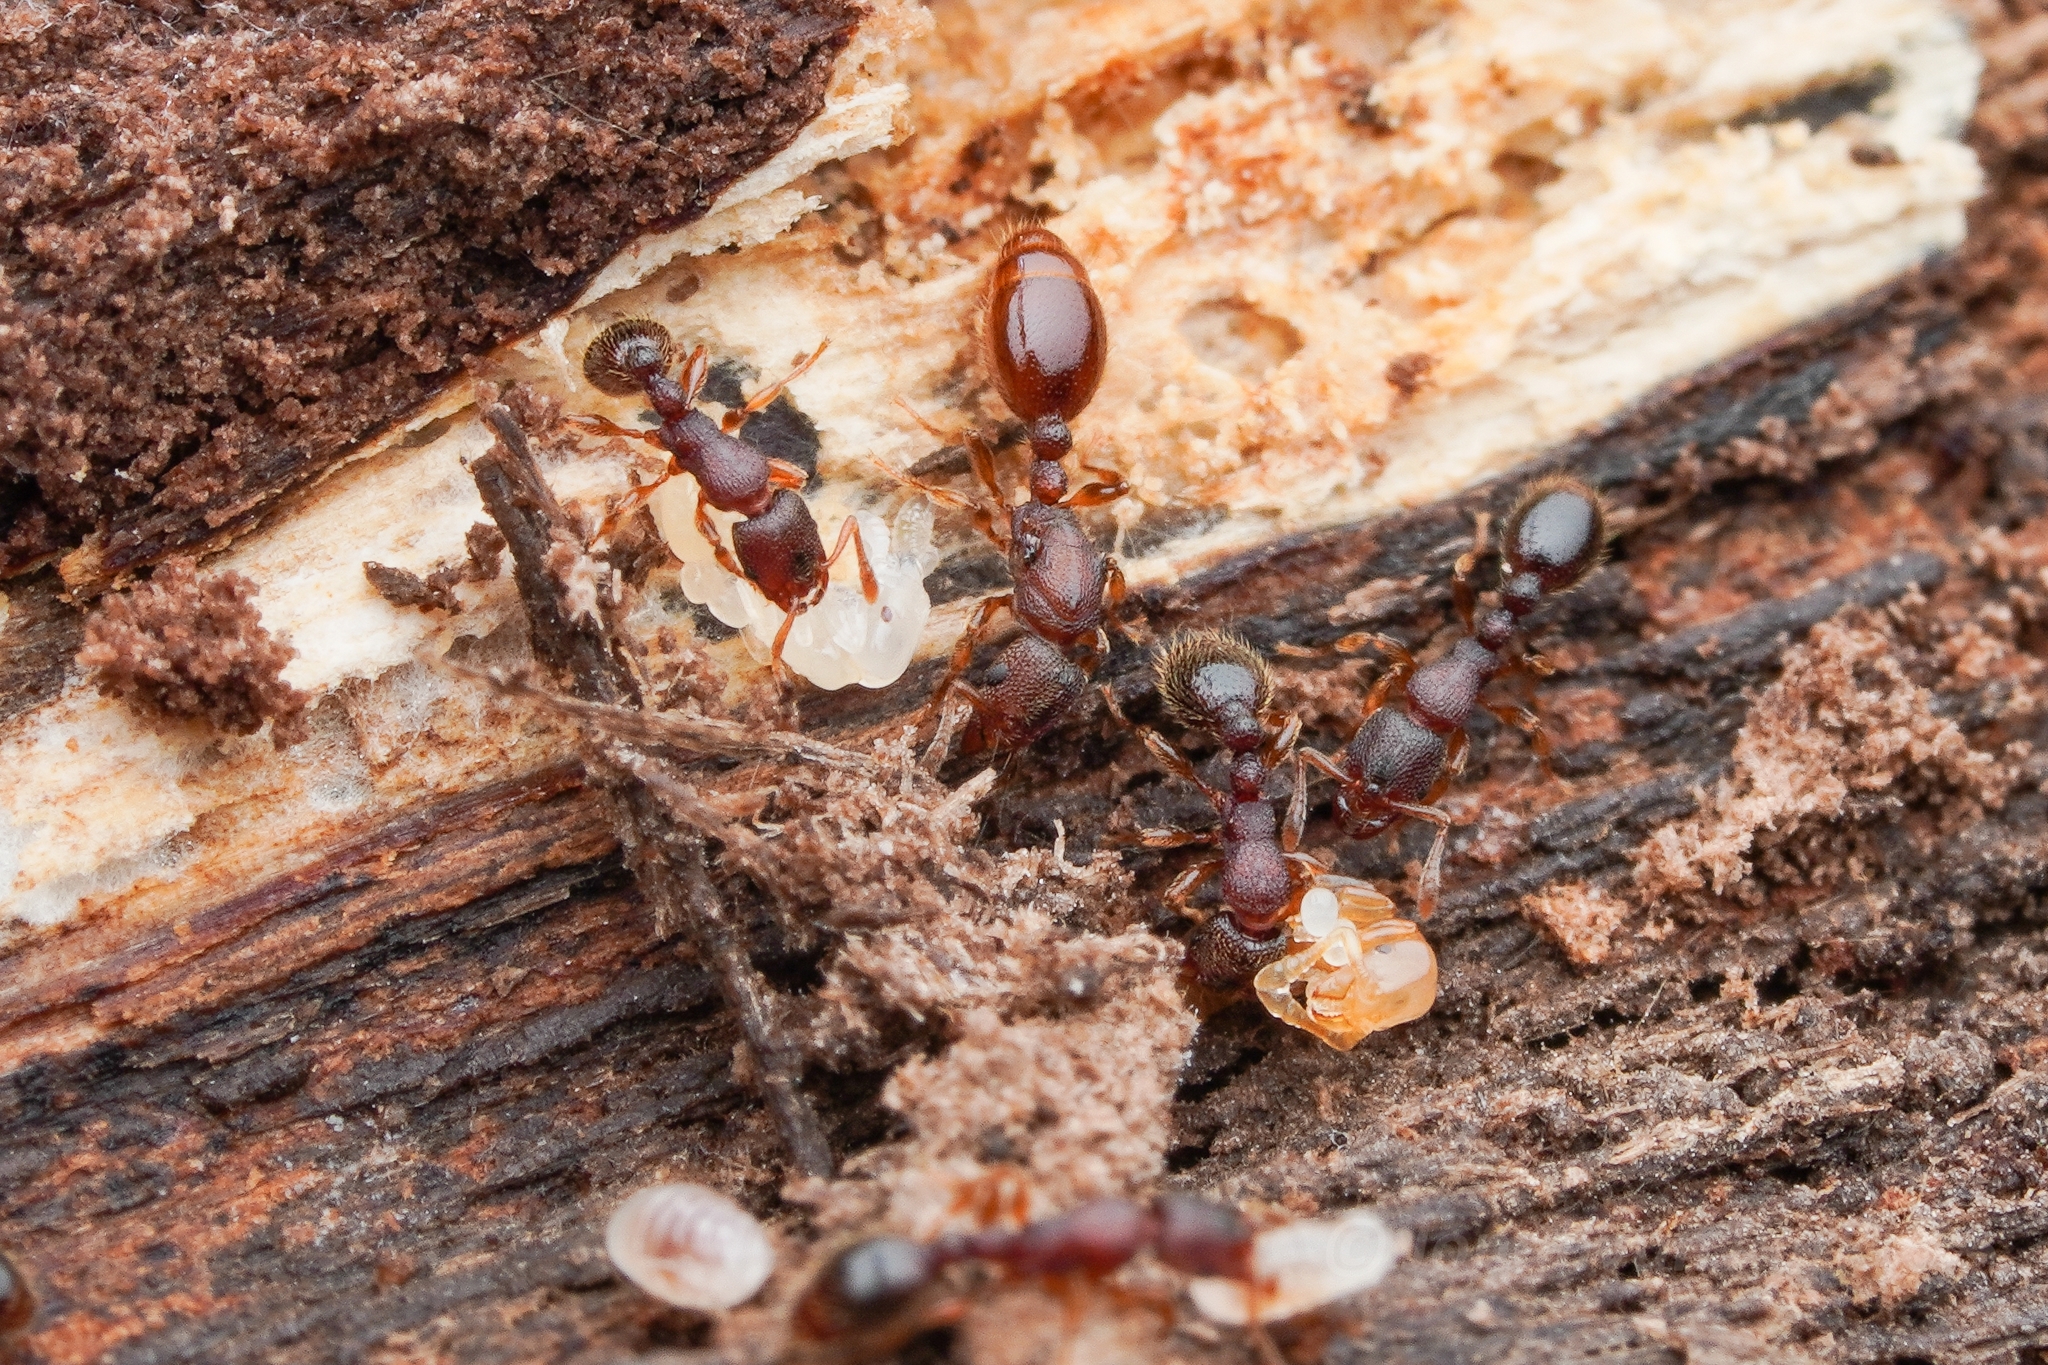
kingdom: Animalia
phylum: Arthropoda
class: Insecta
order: Hymenoptera
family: Formicidae
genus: Vollenhovia
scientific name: Vollenhovia emeryi
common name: Ant
